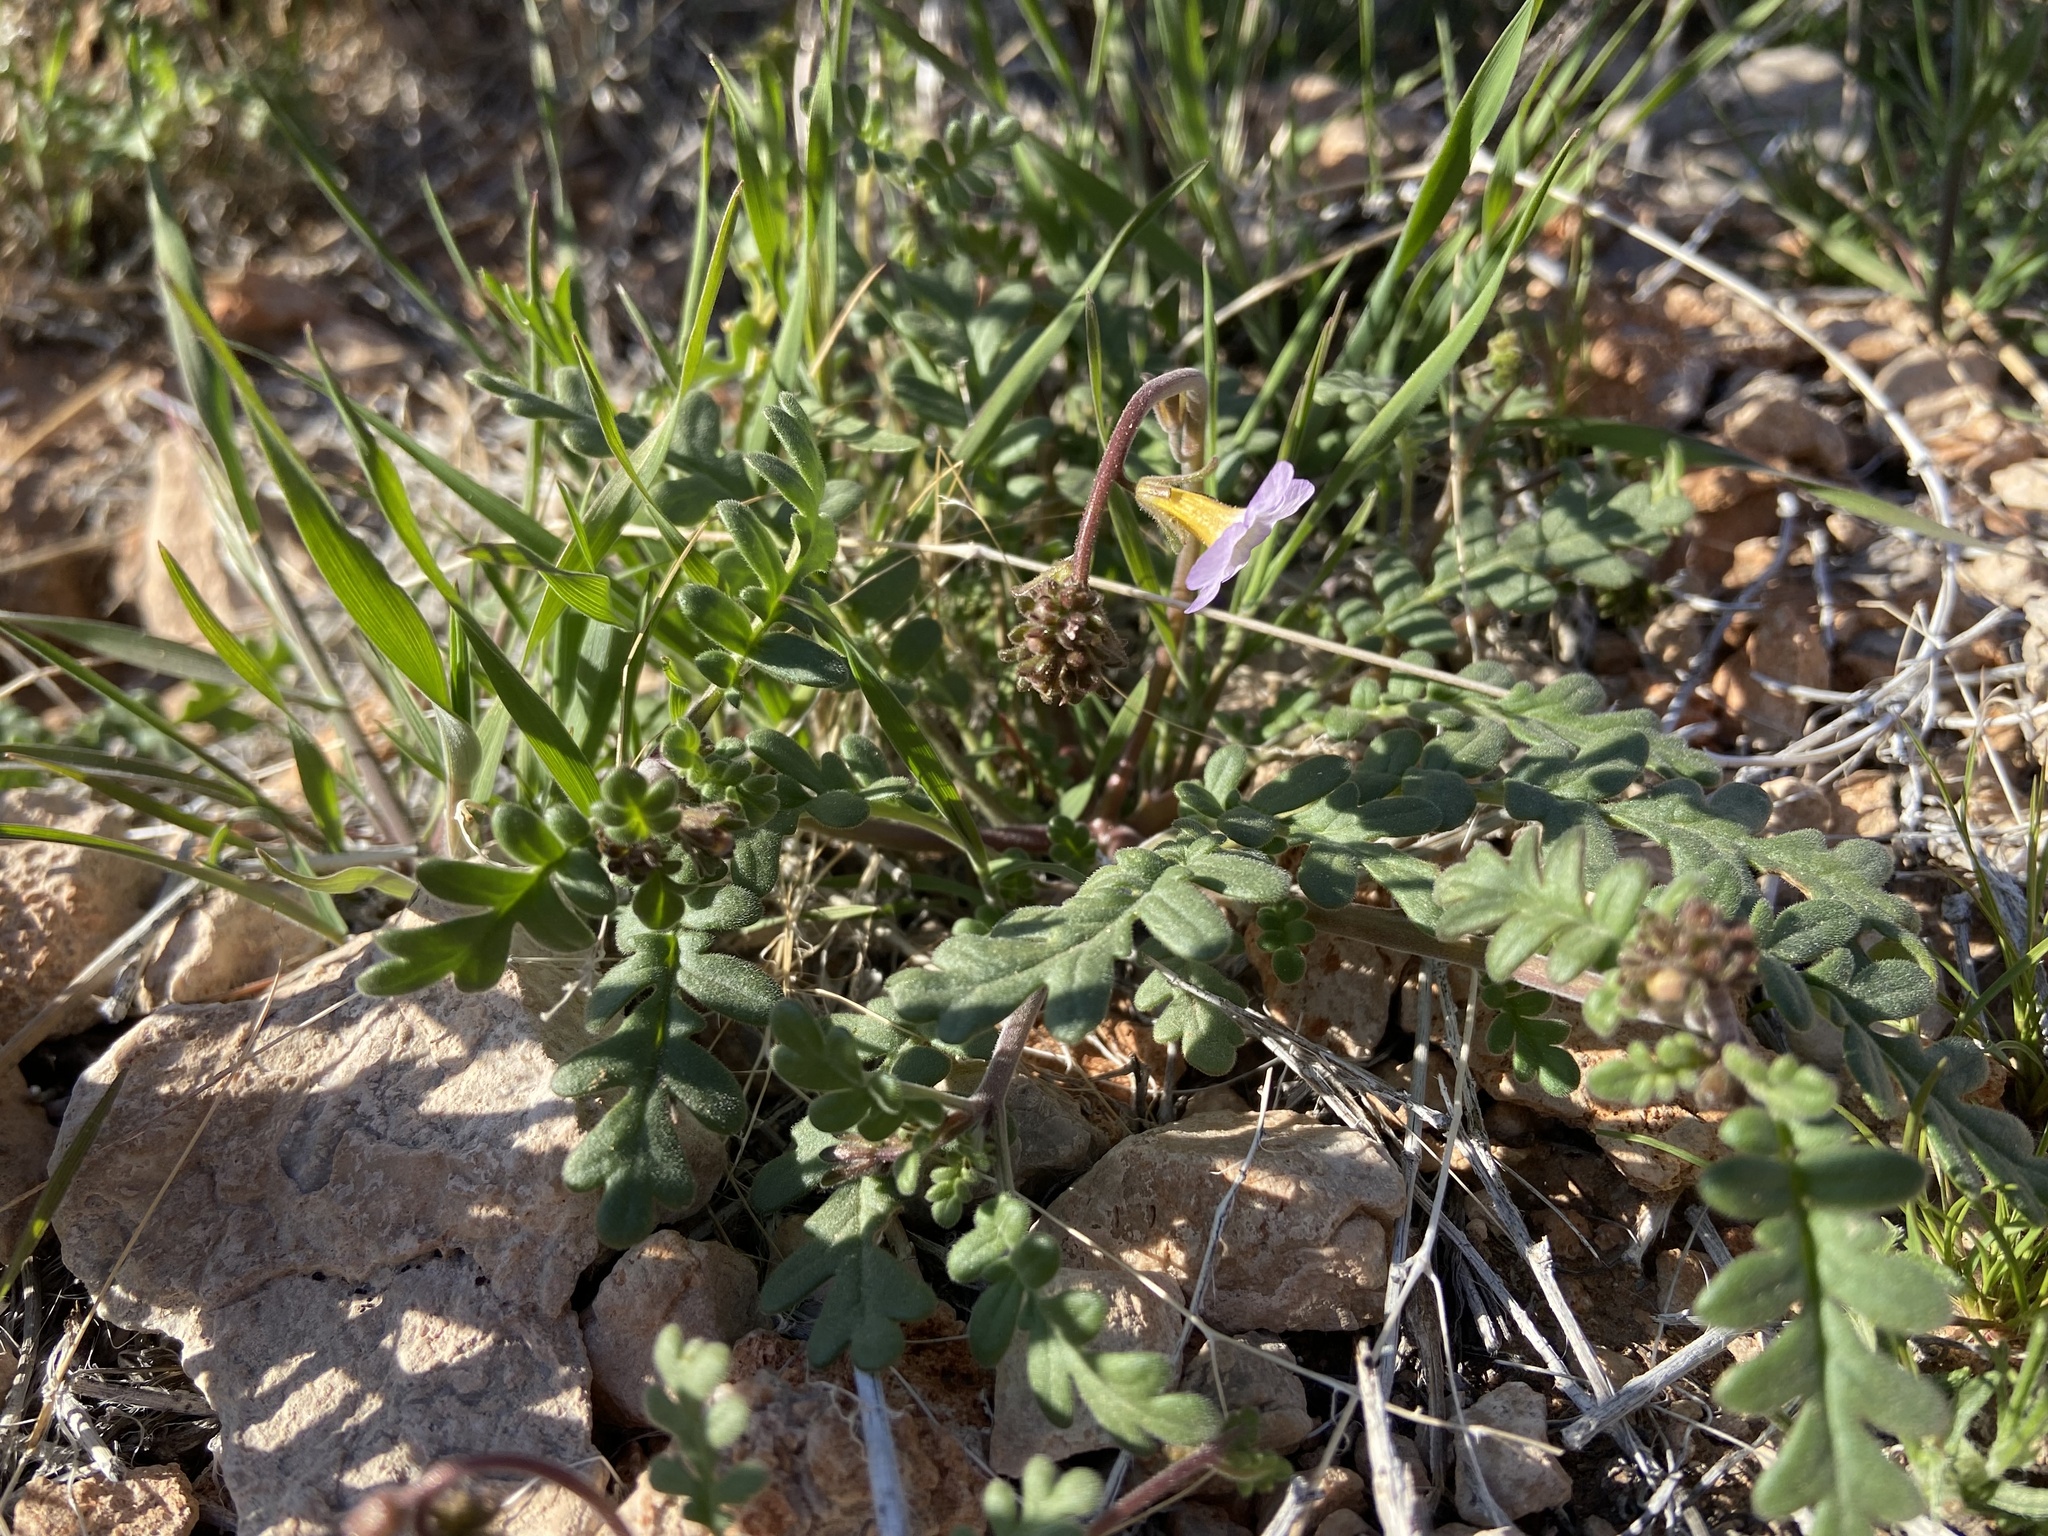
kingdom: Plantae
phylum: Tracheophyta
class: Magnoliopsida
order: Boraginales
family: Hydrophyllaceae
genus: Phacelia
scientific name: Phacelia fremontii
